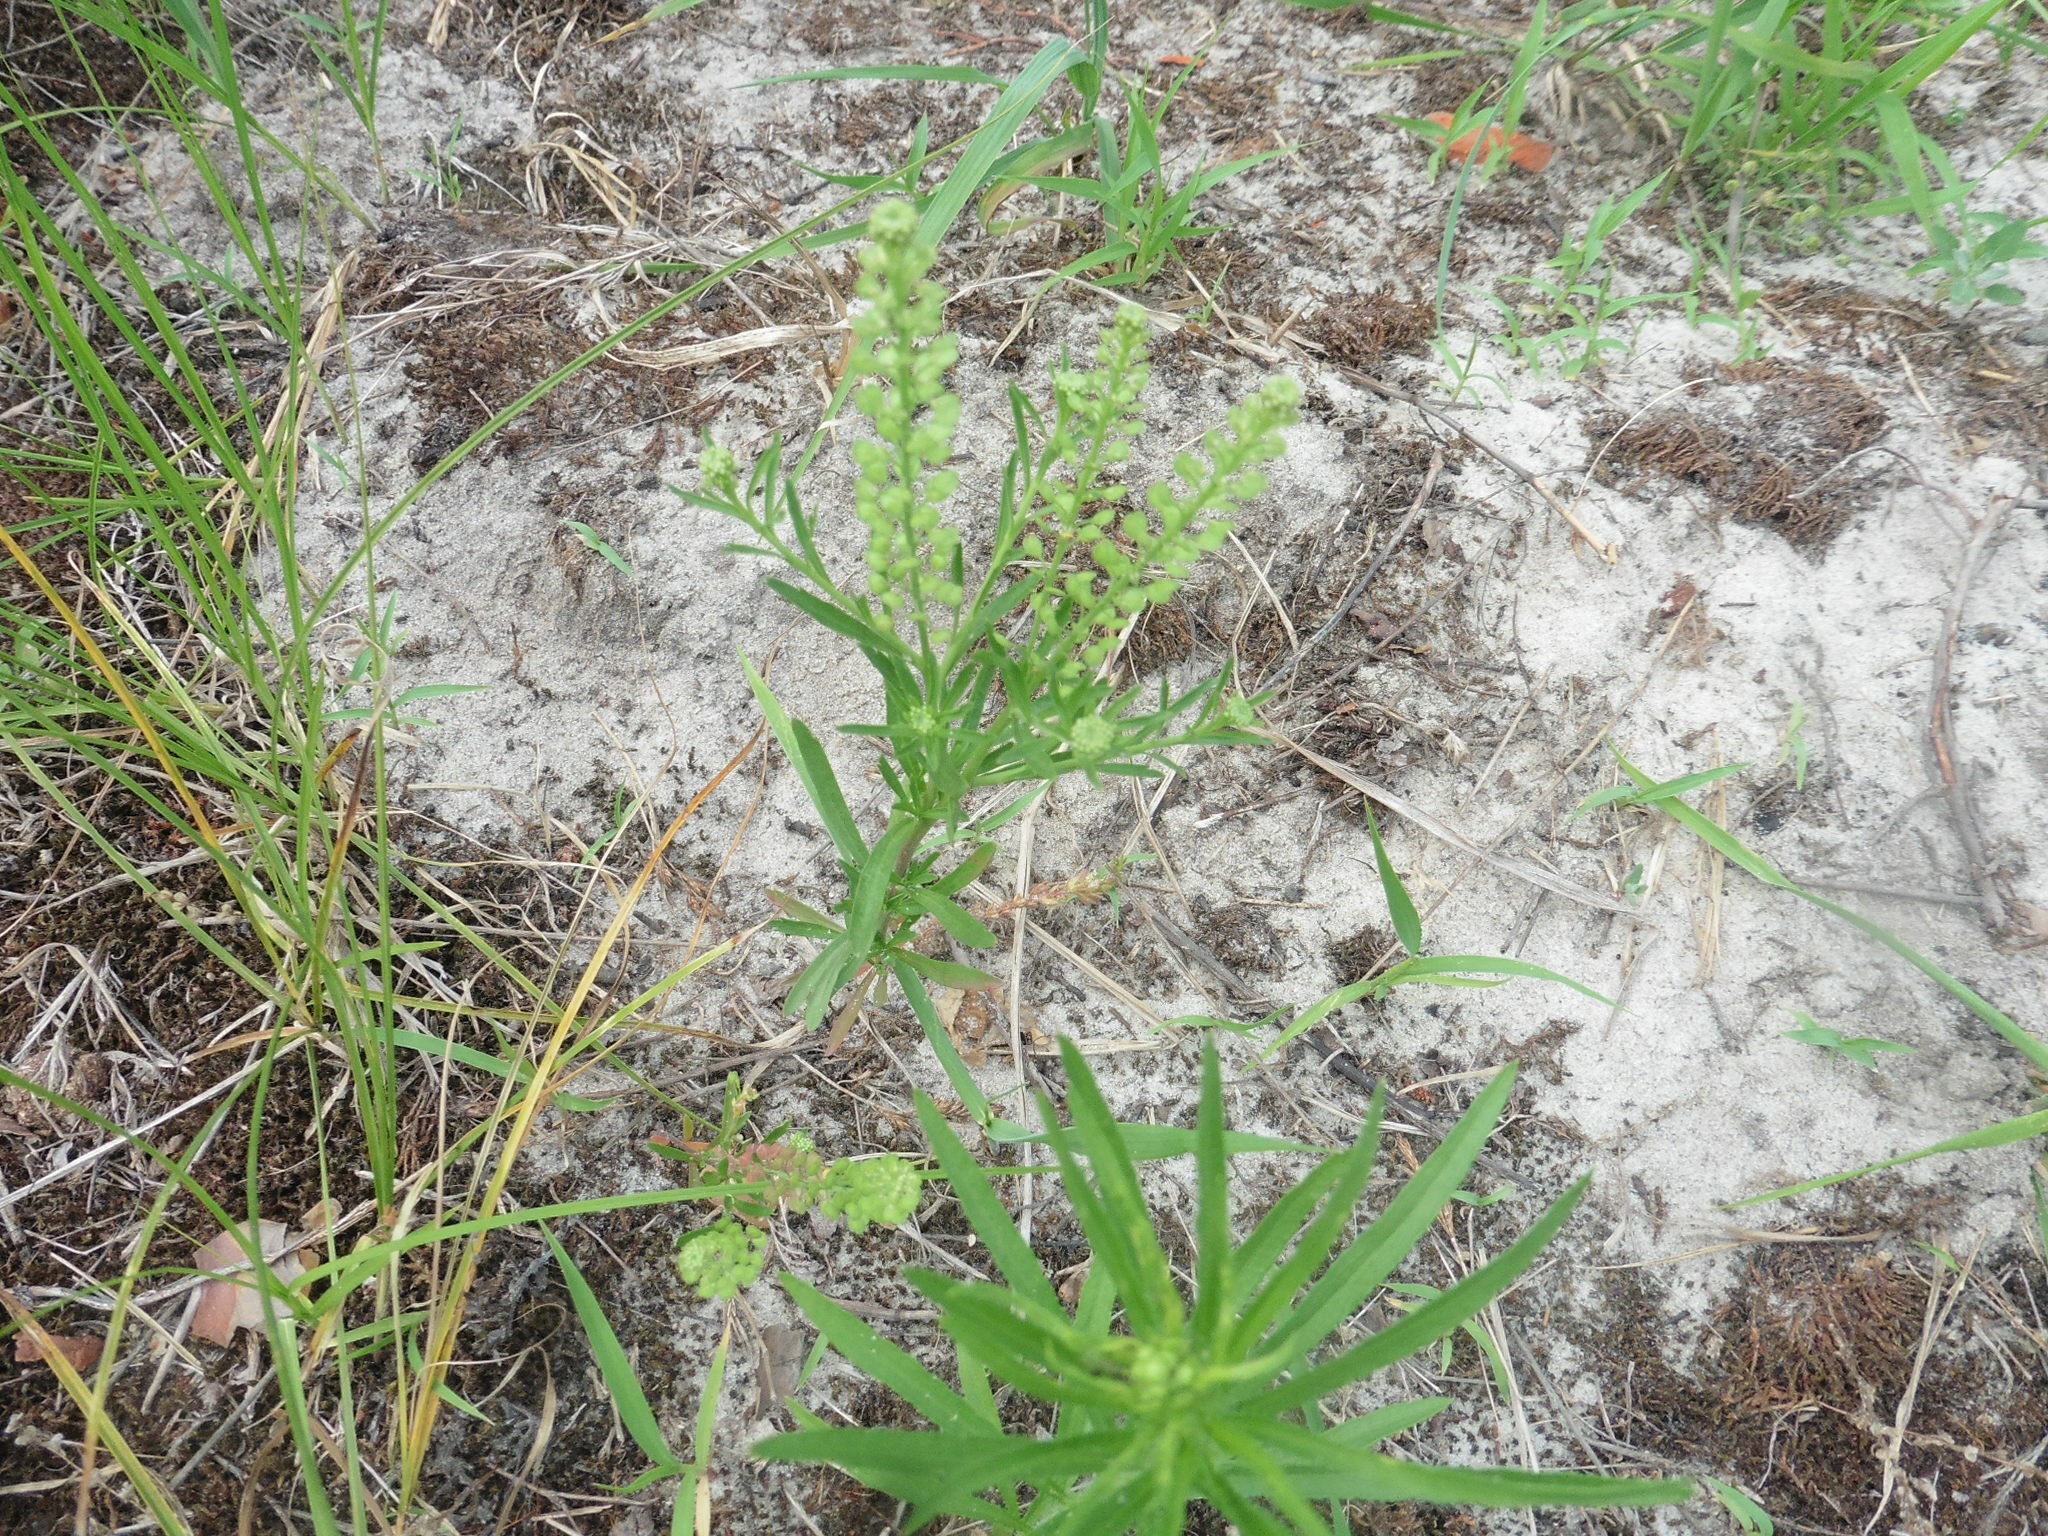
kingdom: Plantae
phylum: Tracheophyta
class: Magnoliopsida
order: Brassicales
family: Brassicaceae
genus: Lepidium
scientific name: Lepidium densiflorum
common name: Miner's pepperwort
